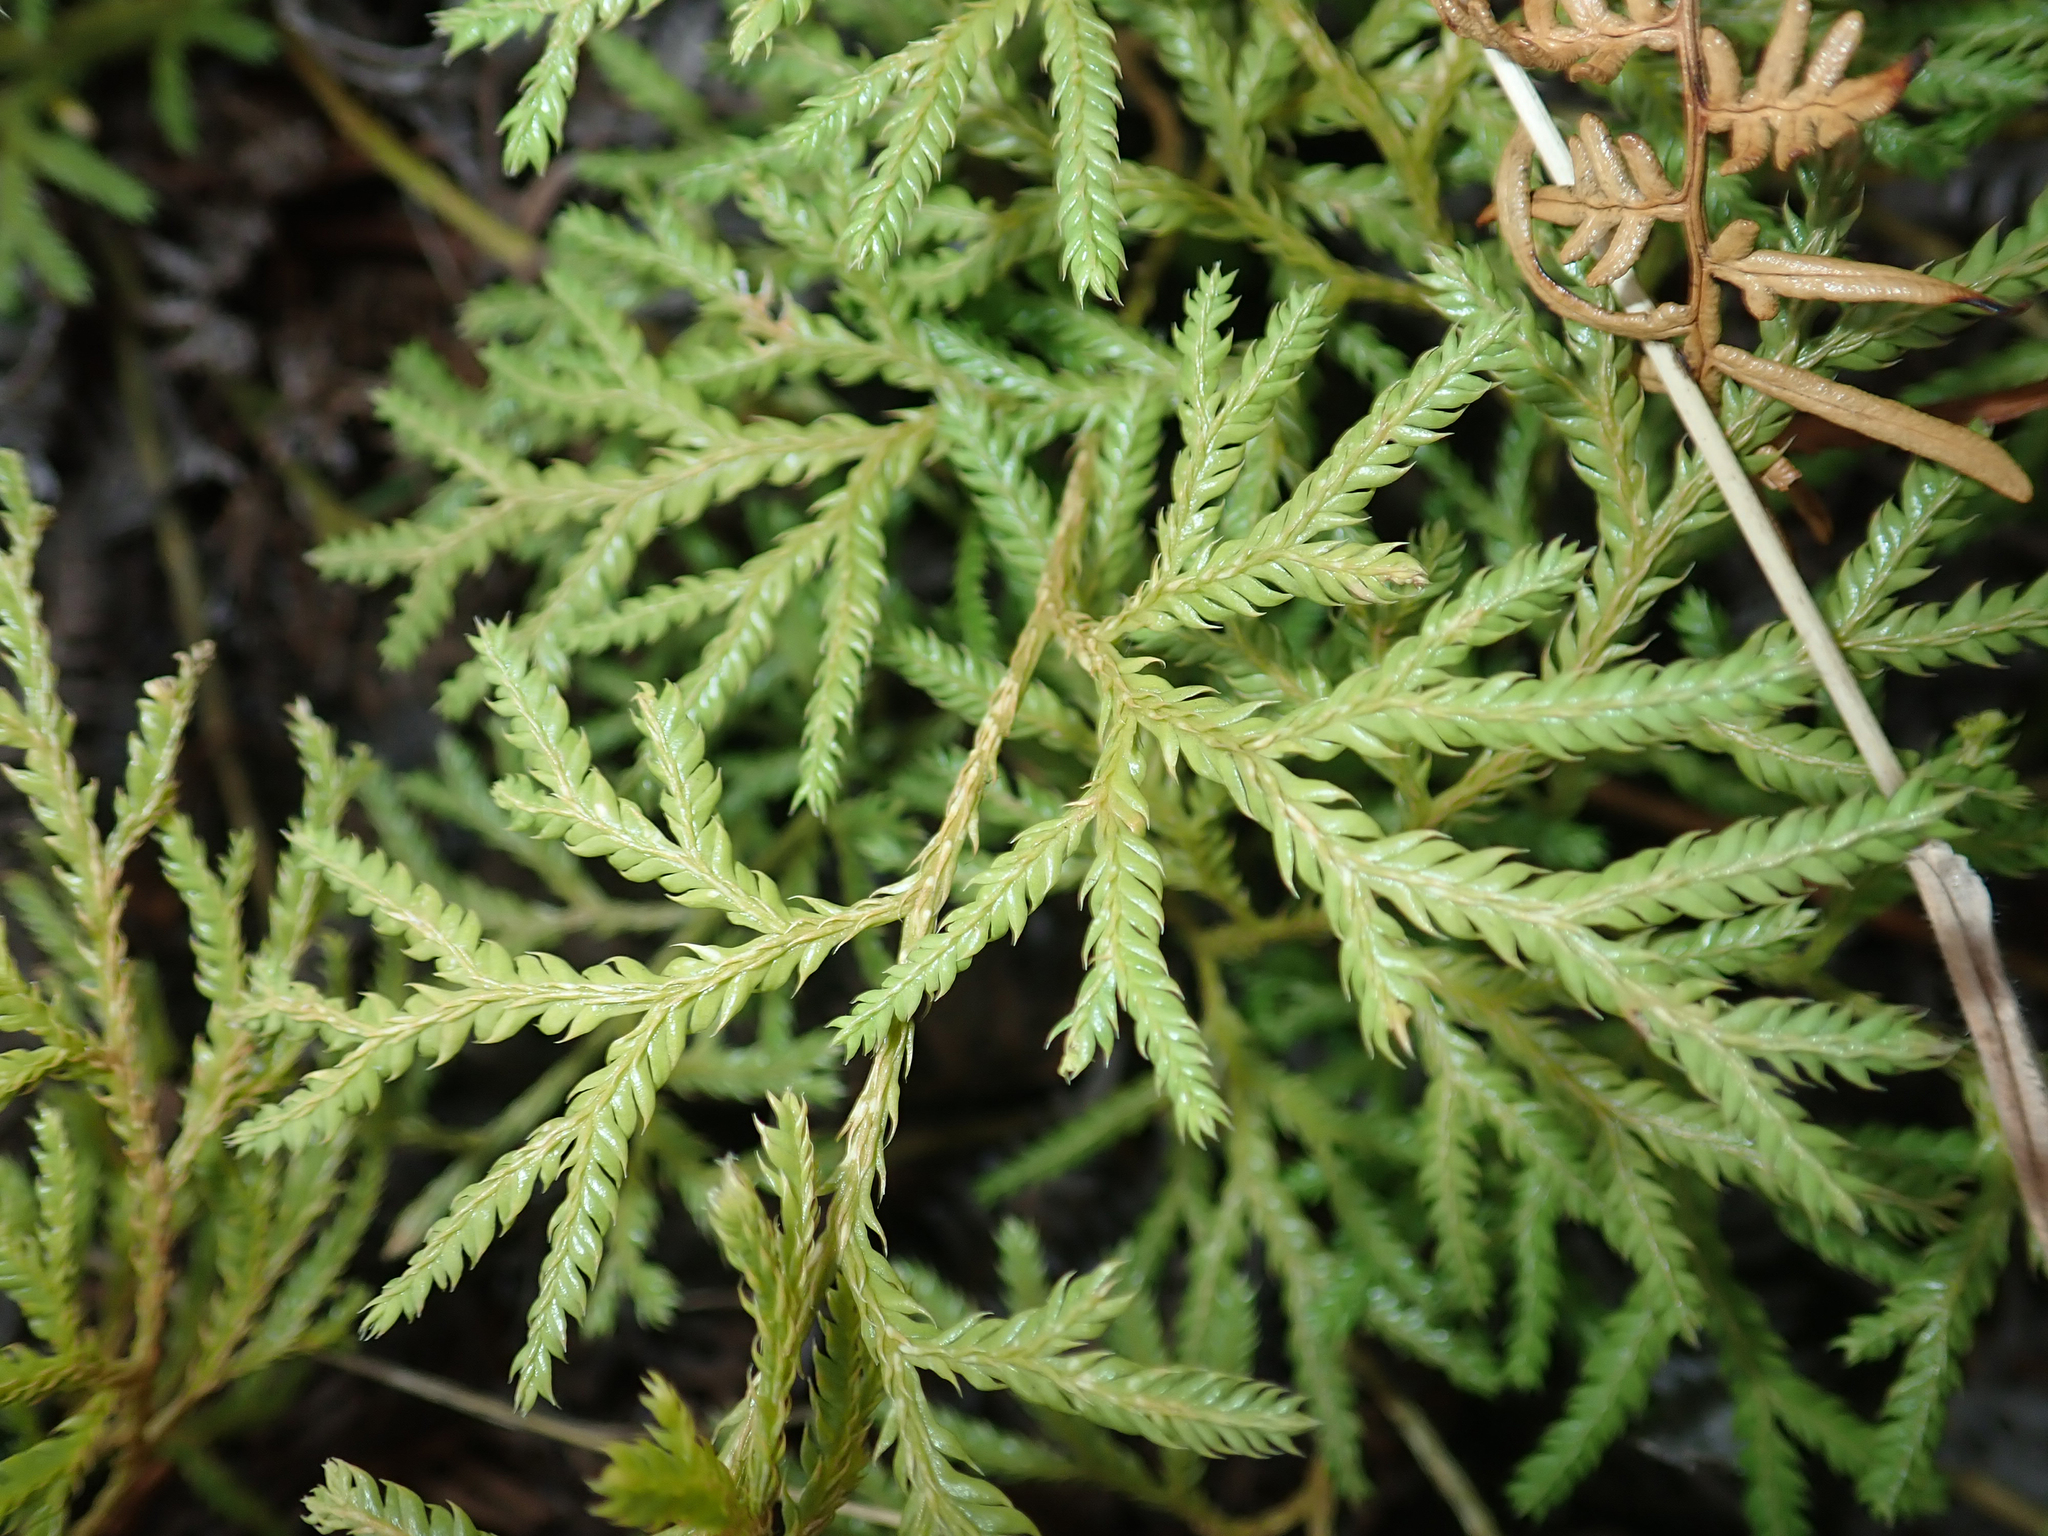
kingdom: Plantae
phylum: Tracheophyta
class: Lycopodiopsida
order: Lycopodiales
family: Lycopodiaceae
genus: Lycopodium
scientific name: Lycopodium volubile
